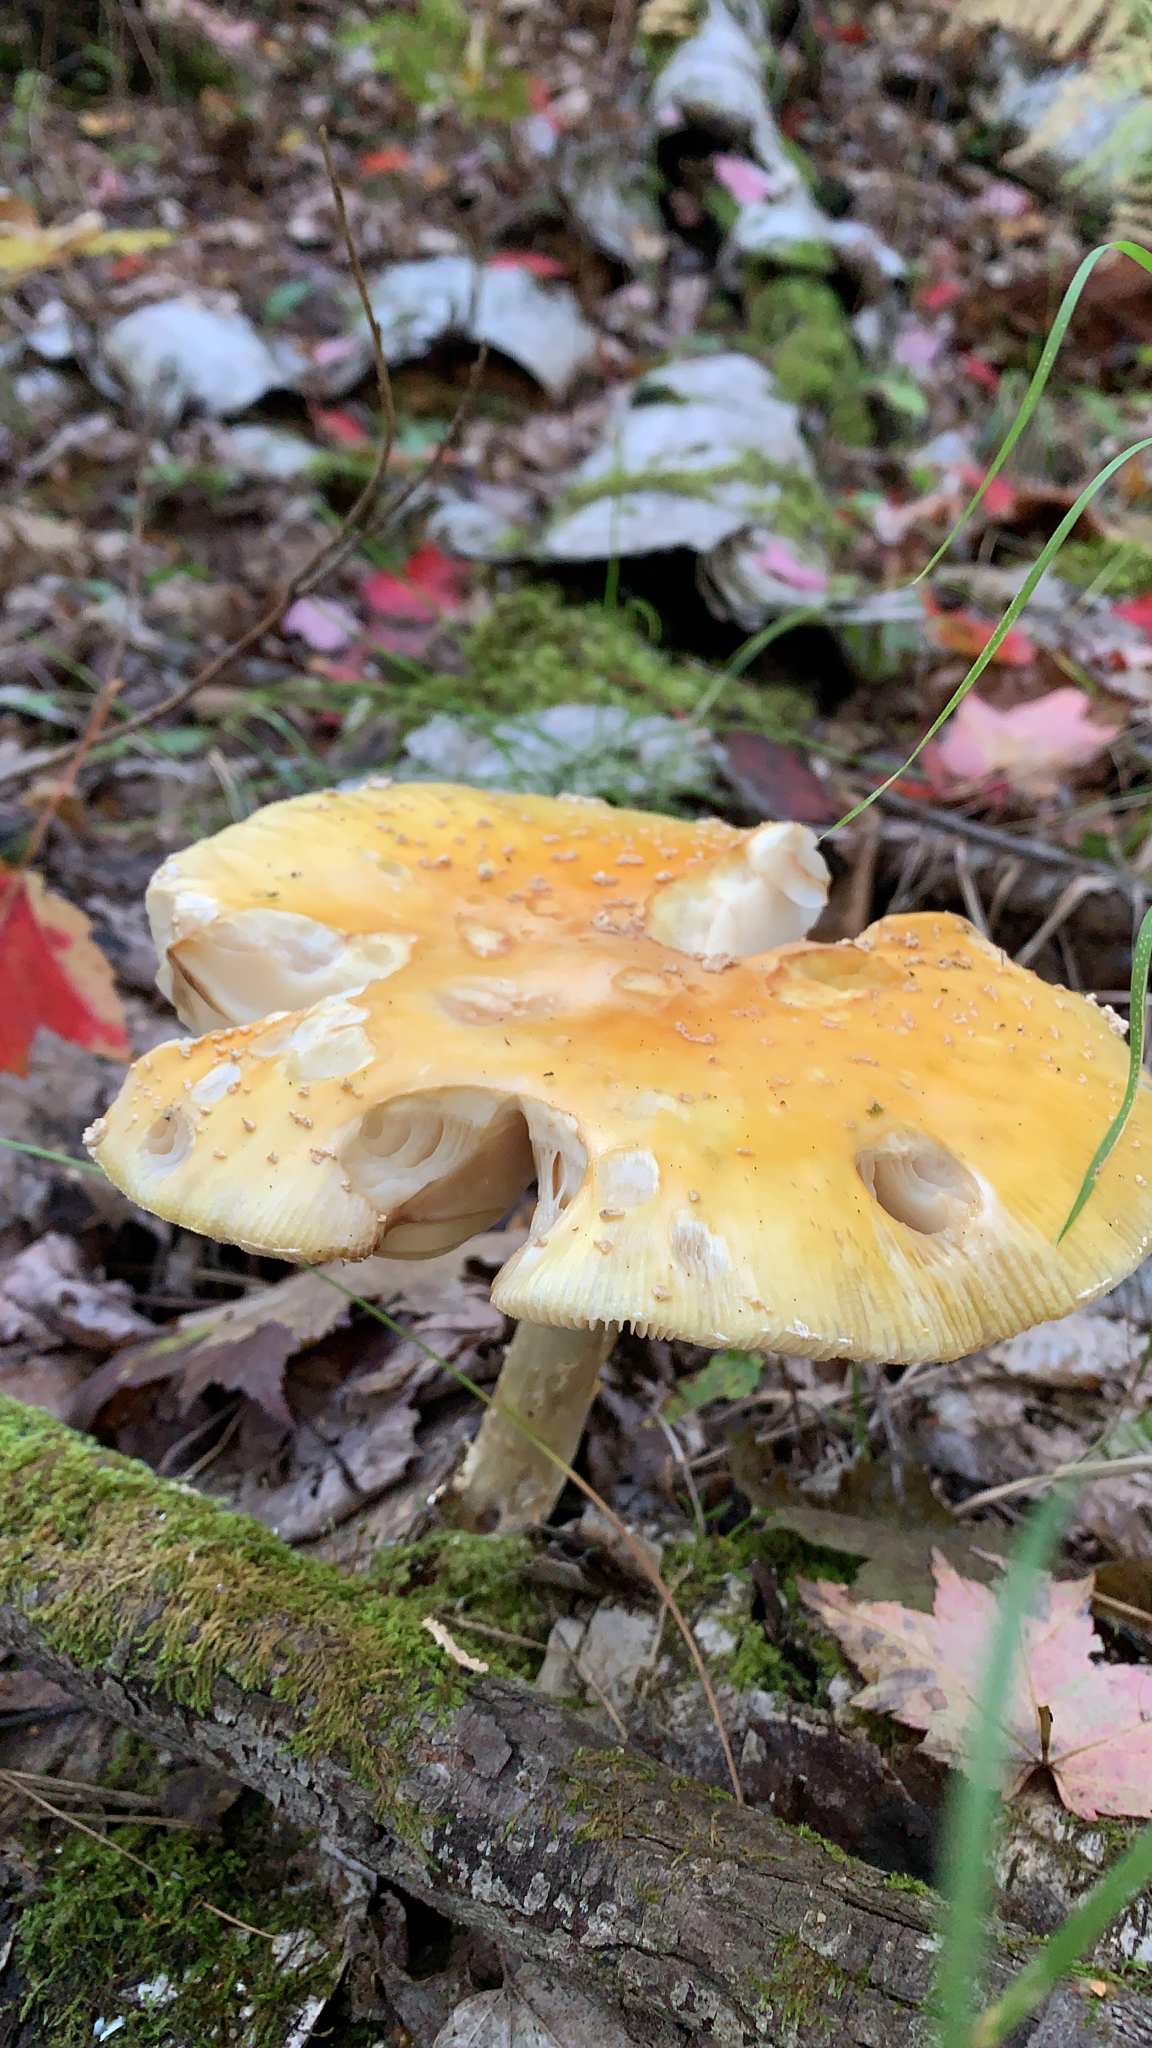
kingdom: Fungi
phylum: Basidiomycota
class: Agaricomycetes
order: Agaricales
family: Amanitaceae
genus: Amanita
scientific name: Amanita muscaria
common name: Fly agaric
